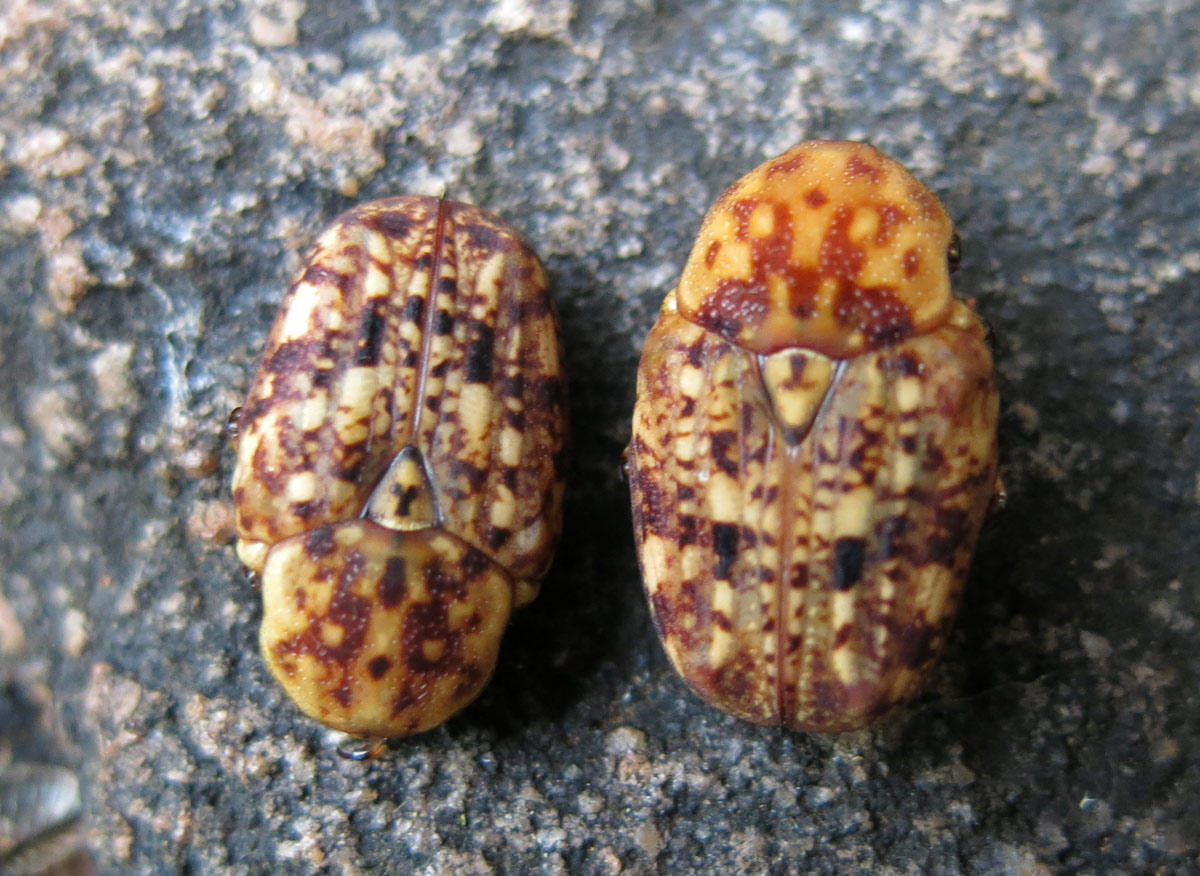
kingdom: Animalia
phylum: Arthropoda
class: Insecta
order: Coleoptera
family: Scarabaeidae
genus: Porphyronota
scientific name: Porphyronota hebraea
